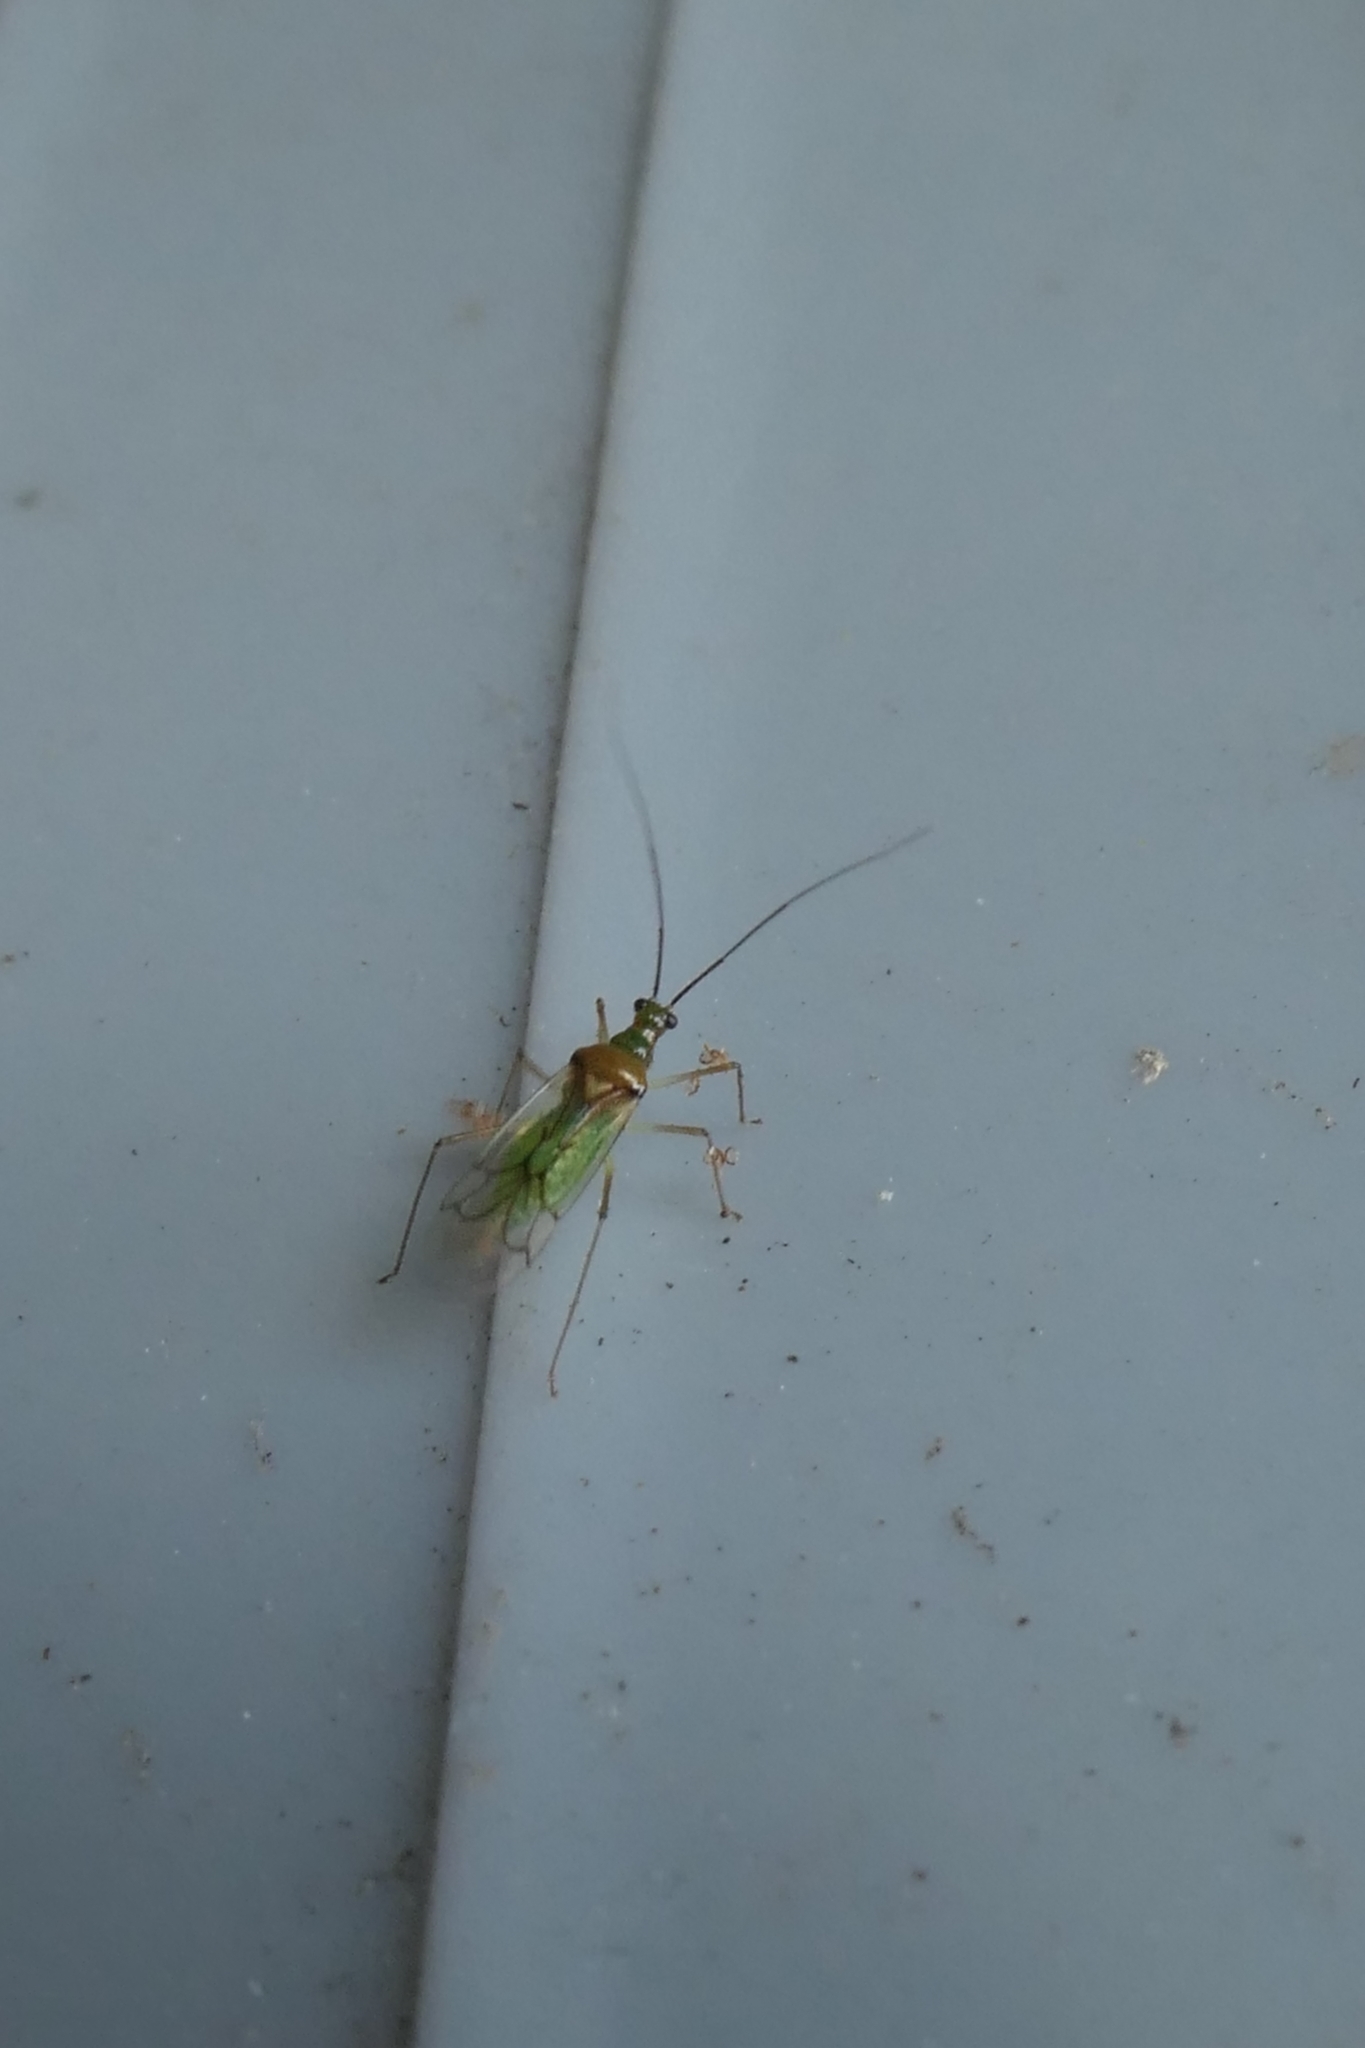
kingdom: Animalia
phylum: Arthropoda
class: Insecta
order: Hemiptera
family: Miridae
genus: Felisacus
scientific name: Felisacus elegantulus
